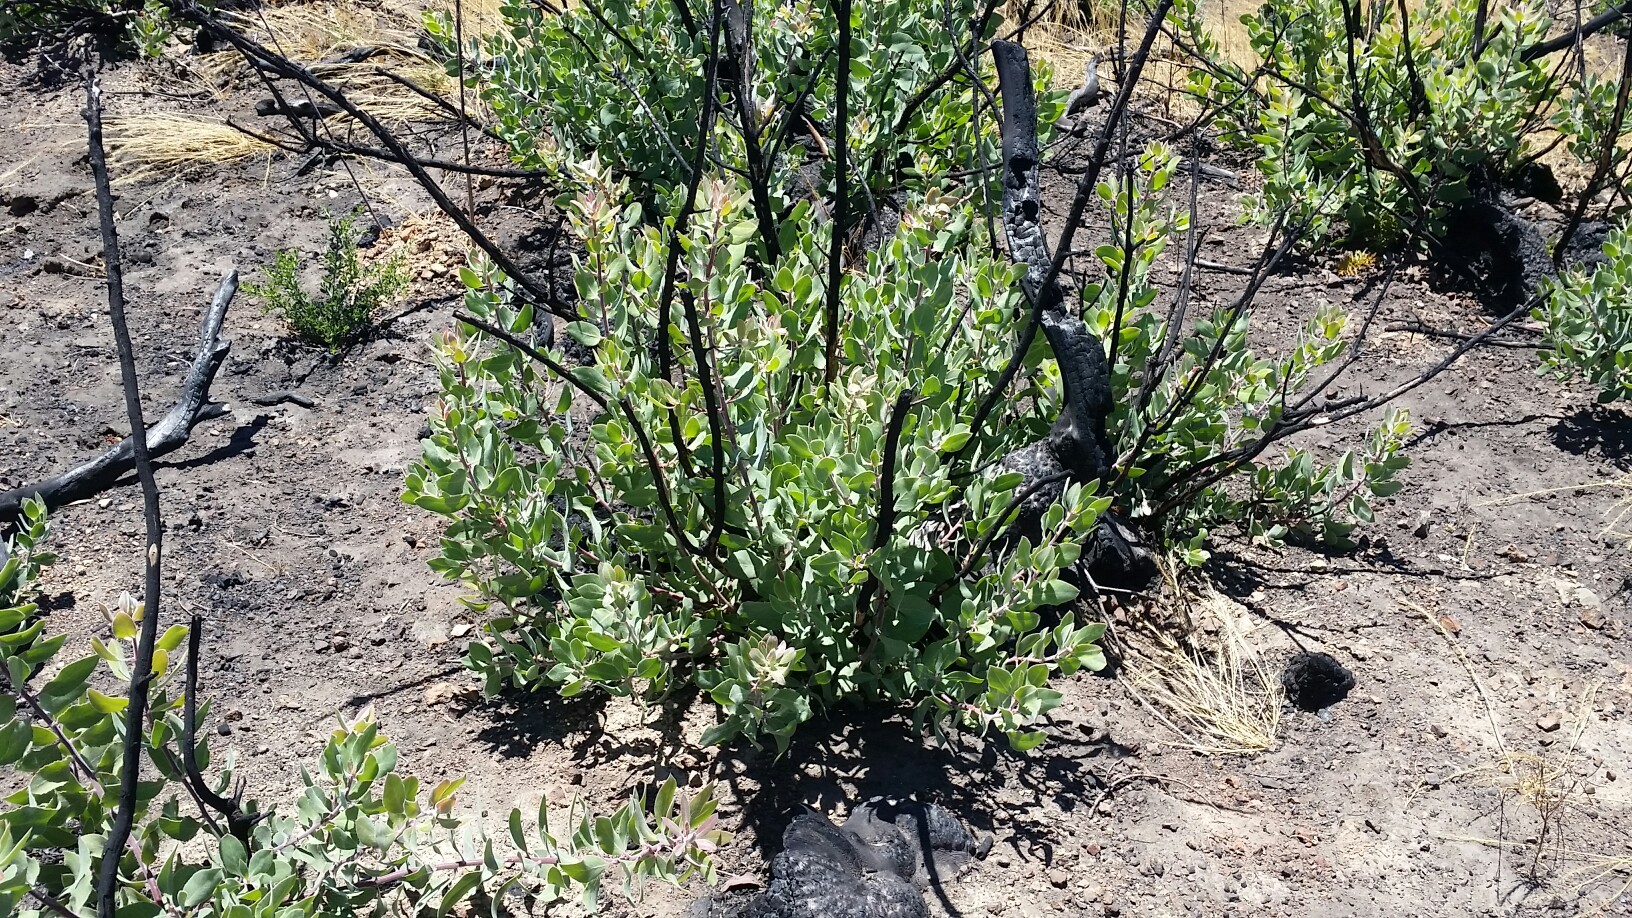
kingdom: Plantae
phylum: Tracheophyta
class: Magnoliopsida
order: Ericales
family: Ericaceae
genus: Arctostaphylos
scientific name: Arctostaphylos glandulosa
